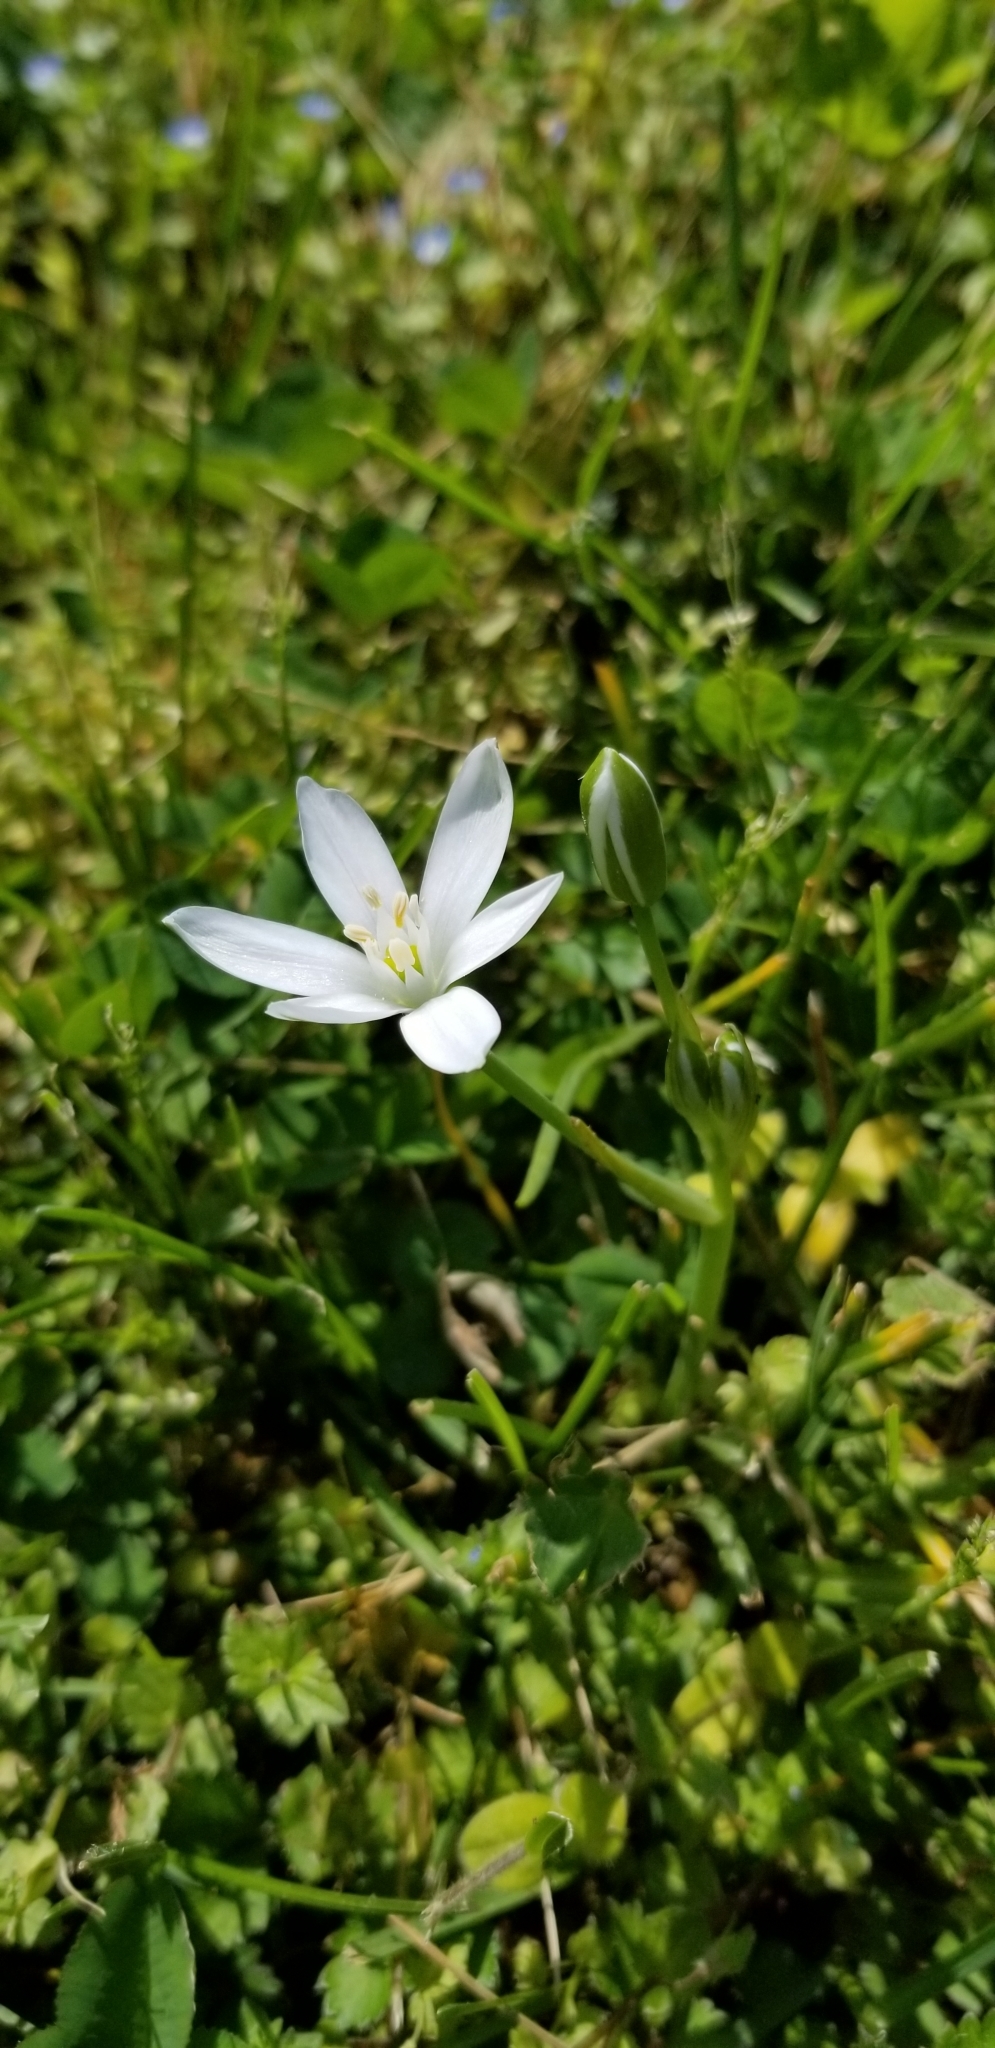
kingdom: Plantae
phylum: Tracheophyta
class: Liliopsida
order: Asparagales
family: Asparagaceae
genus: Ornithogalum
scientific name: Ornithogalum umbellatum
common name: Garden star-of-bethlehem
